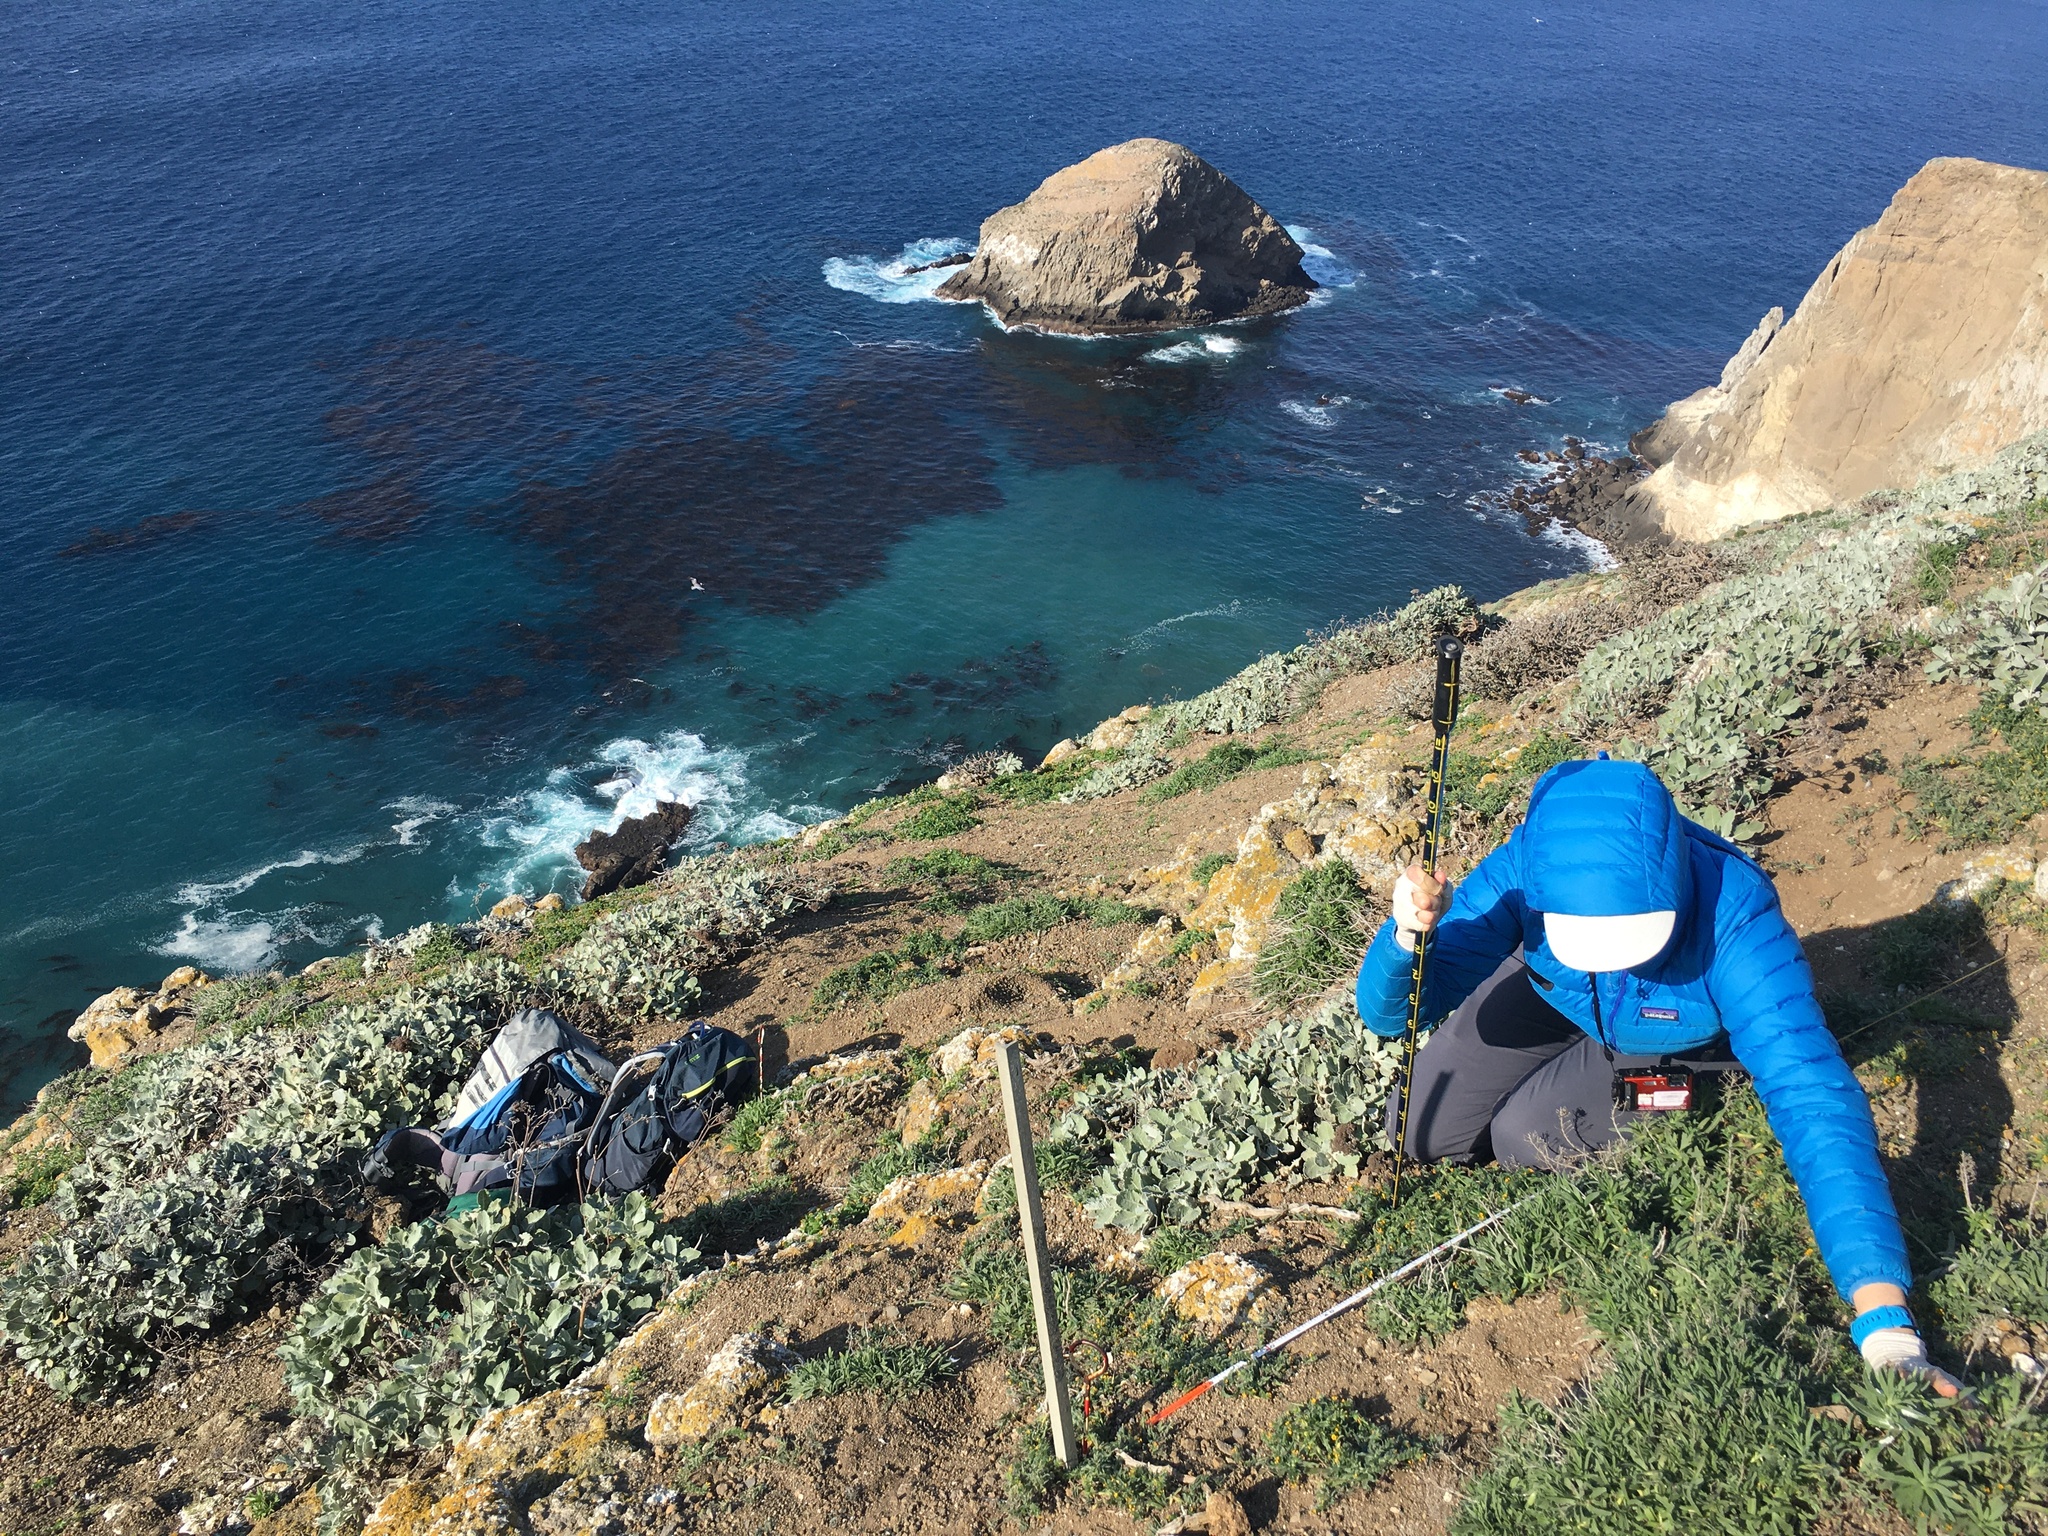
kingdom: Plantae
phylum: Tracheophyta
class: Magnoliopsida
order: Caryophyllales
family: Polygonaceae
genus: Eriogonum
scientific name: Eriogonum giganteum
